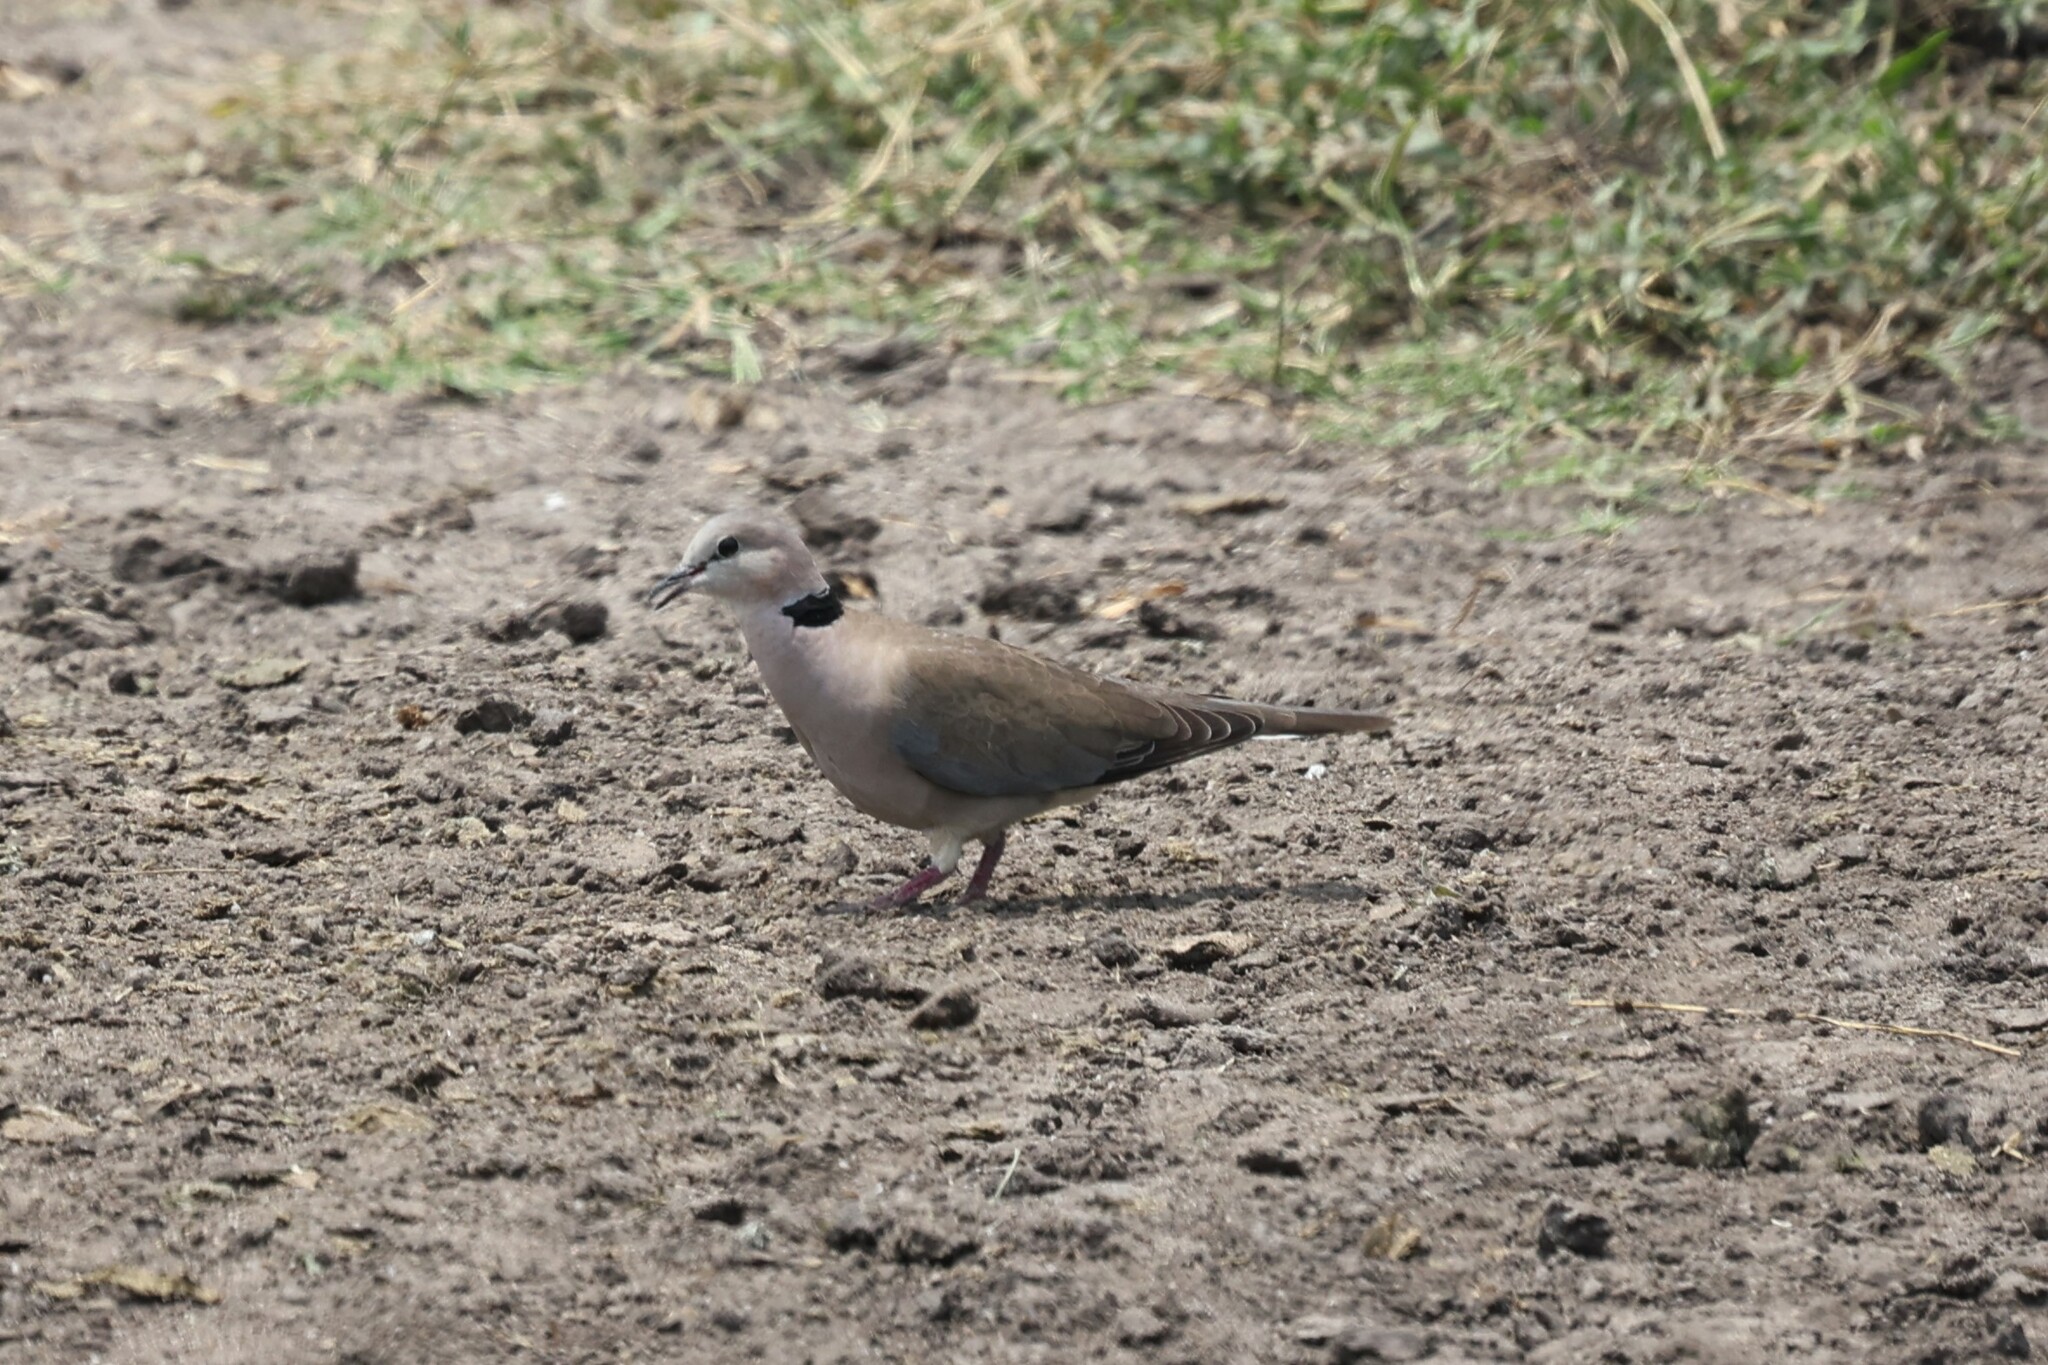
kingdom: Animalia
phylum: Chordata
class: Aves
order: Columbiformes
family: Columbidae
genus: Streptopelia
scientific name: Streptopelia capicola
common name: Ring-necked dove
